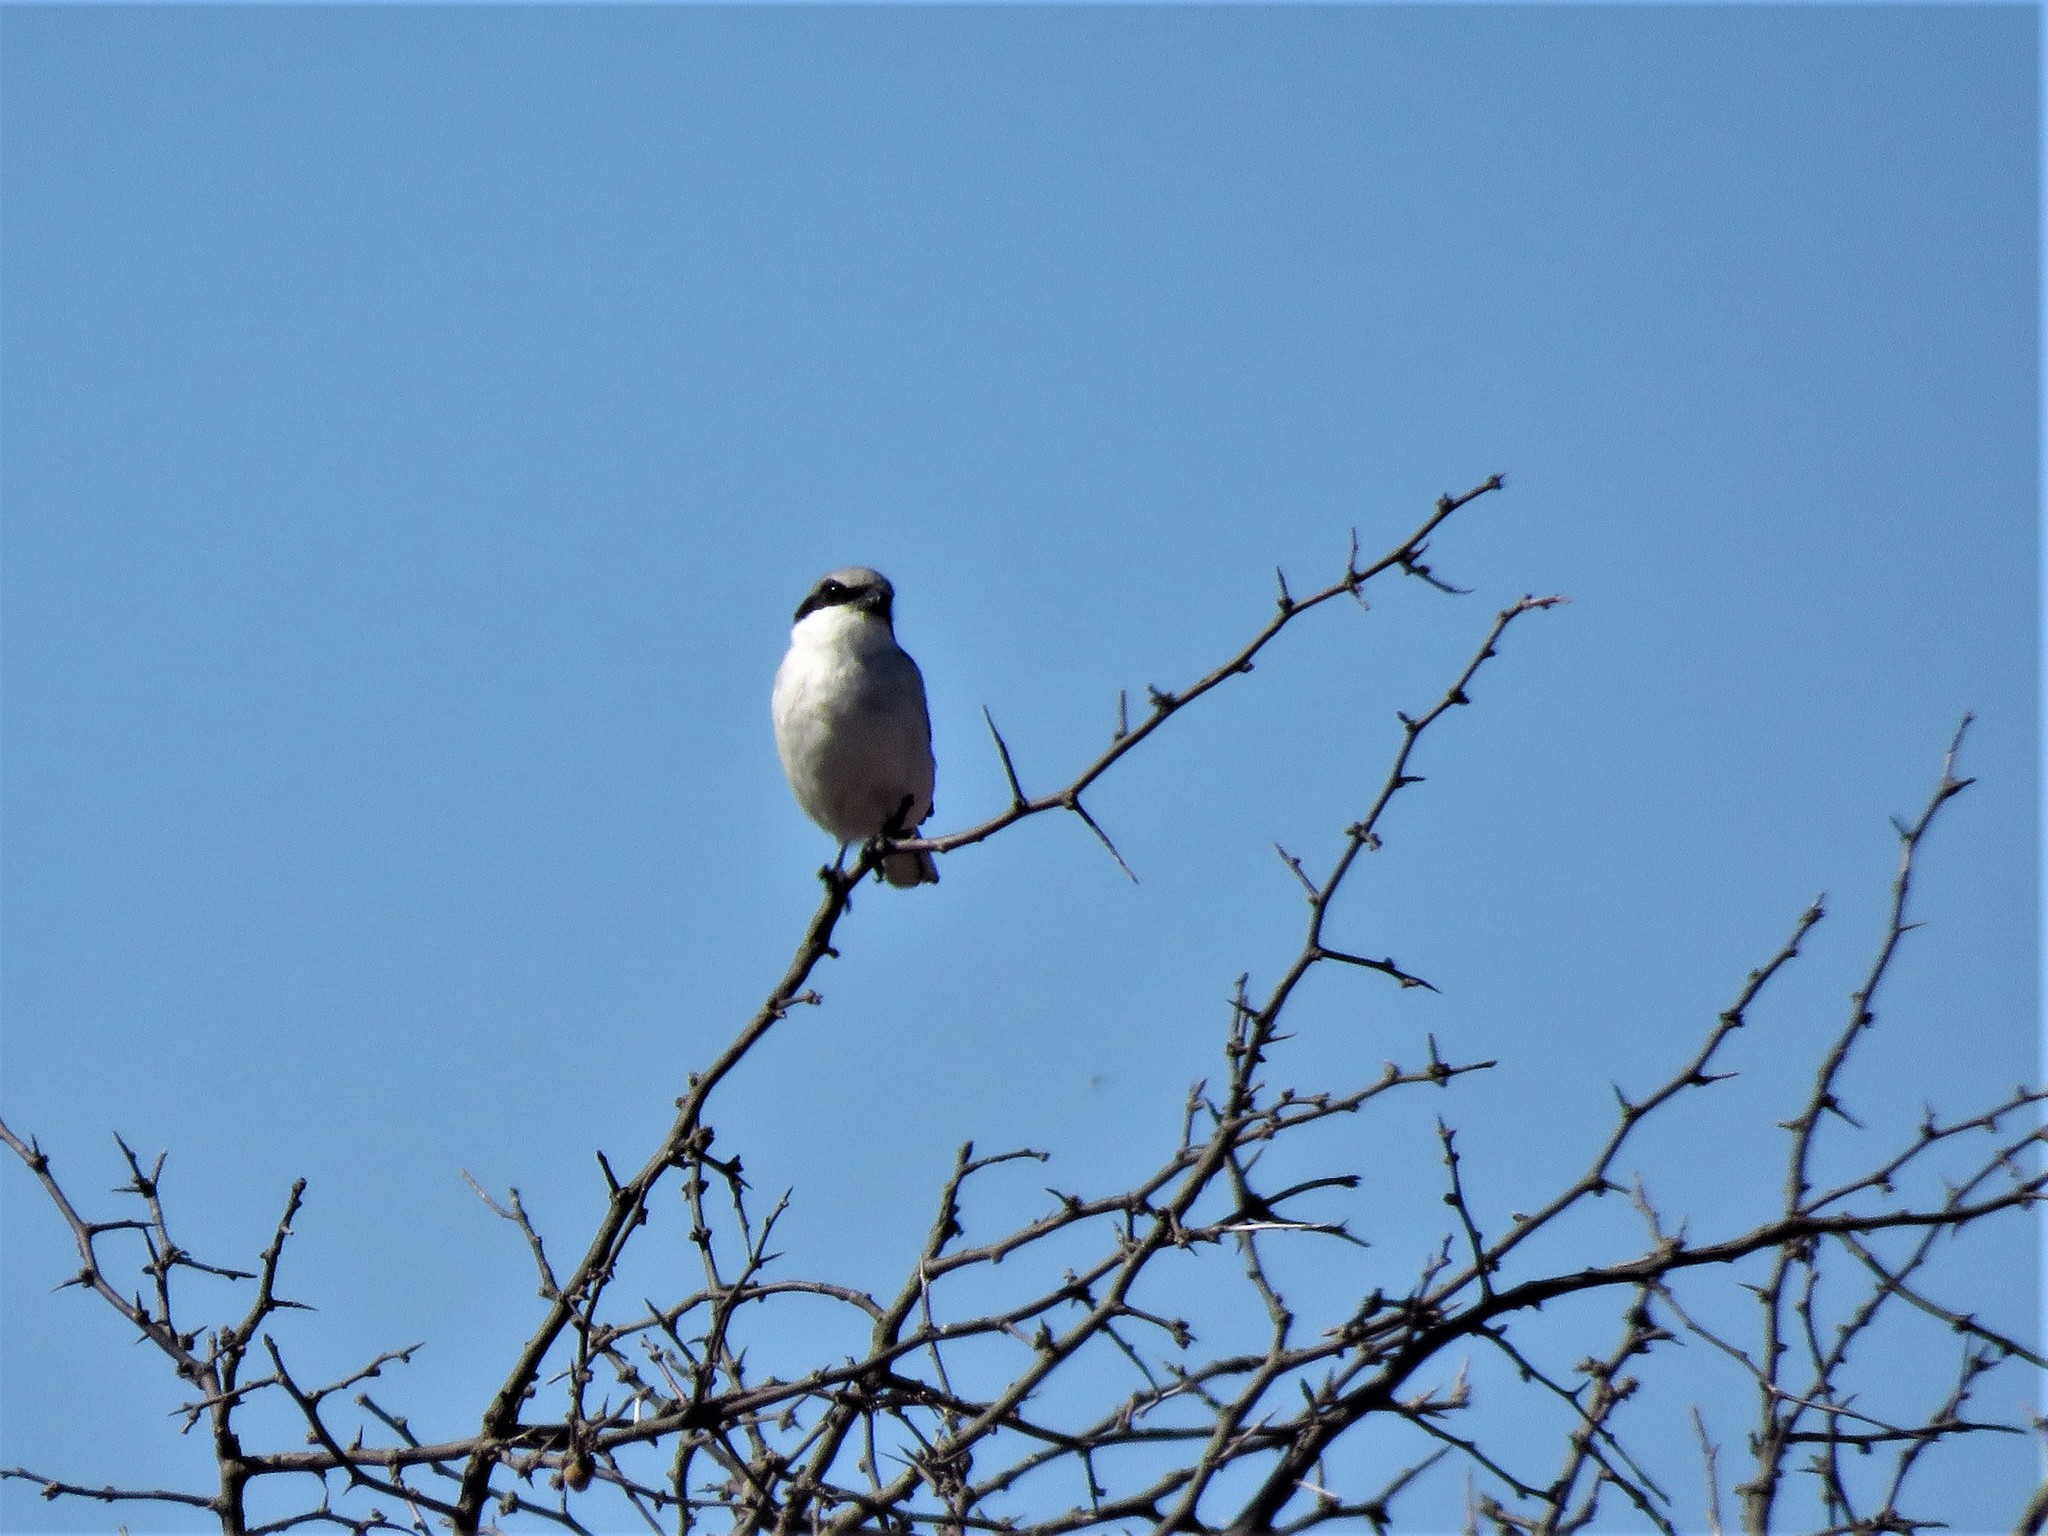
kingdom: Animalia
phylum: Chordata
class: Aves
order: Passeriformes
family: Laniidae
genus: Lanius
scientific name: Lanius ludovicianus
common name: Loggerhead shrike
